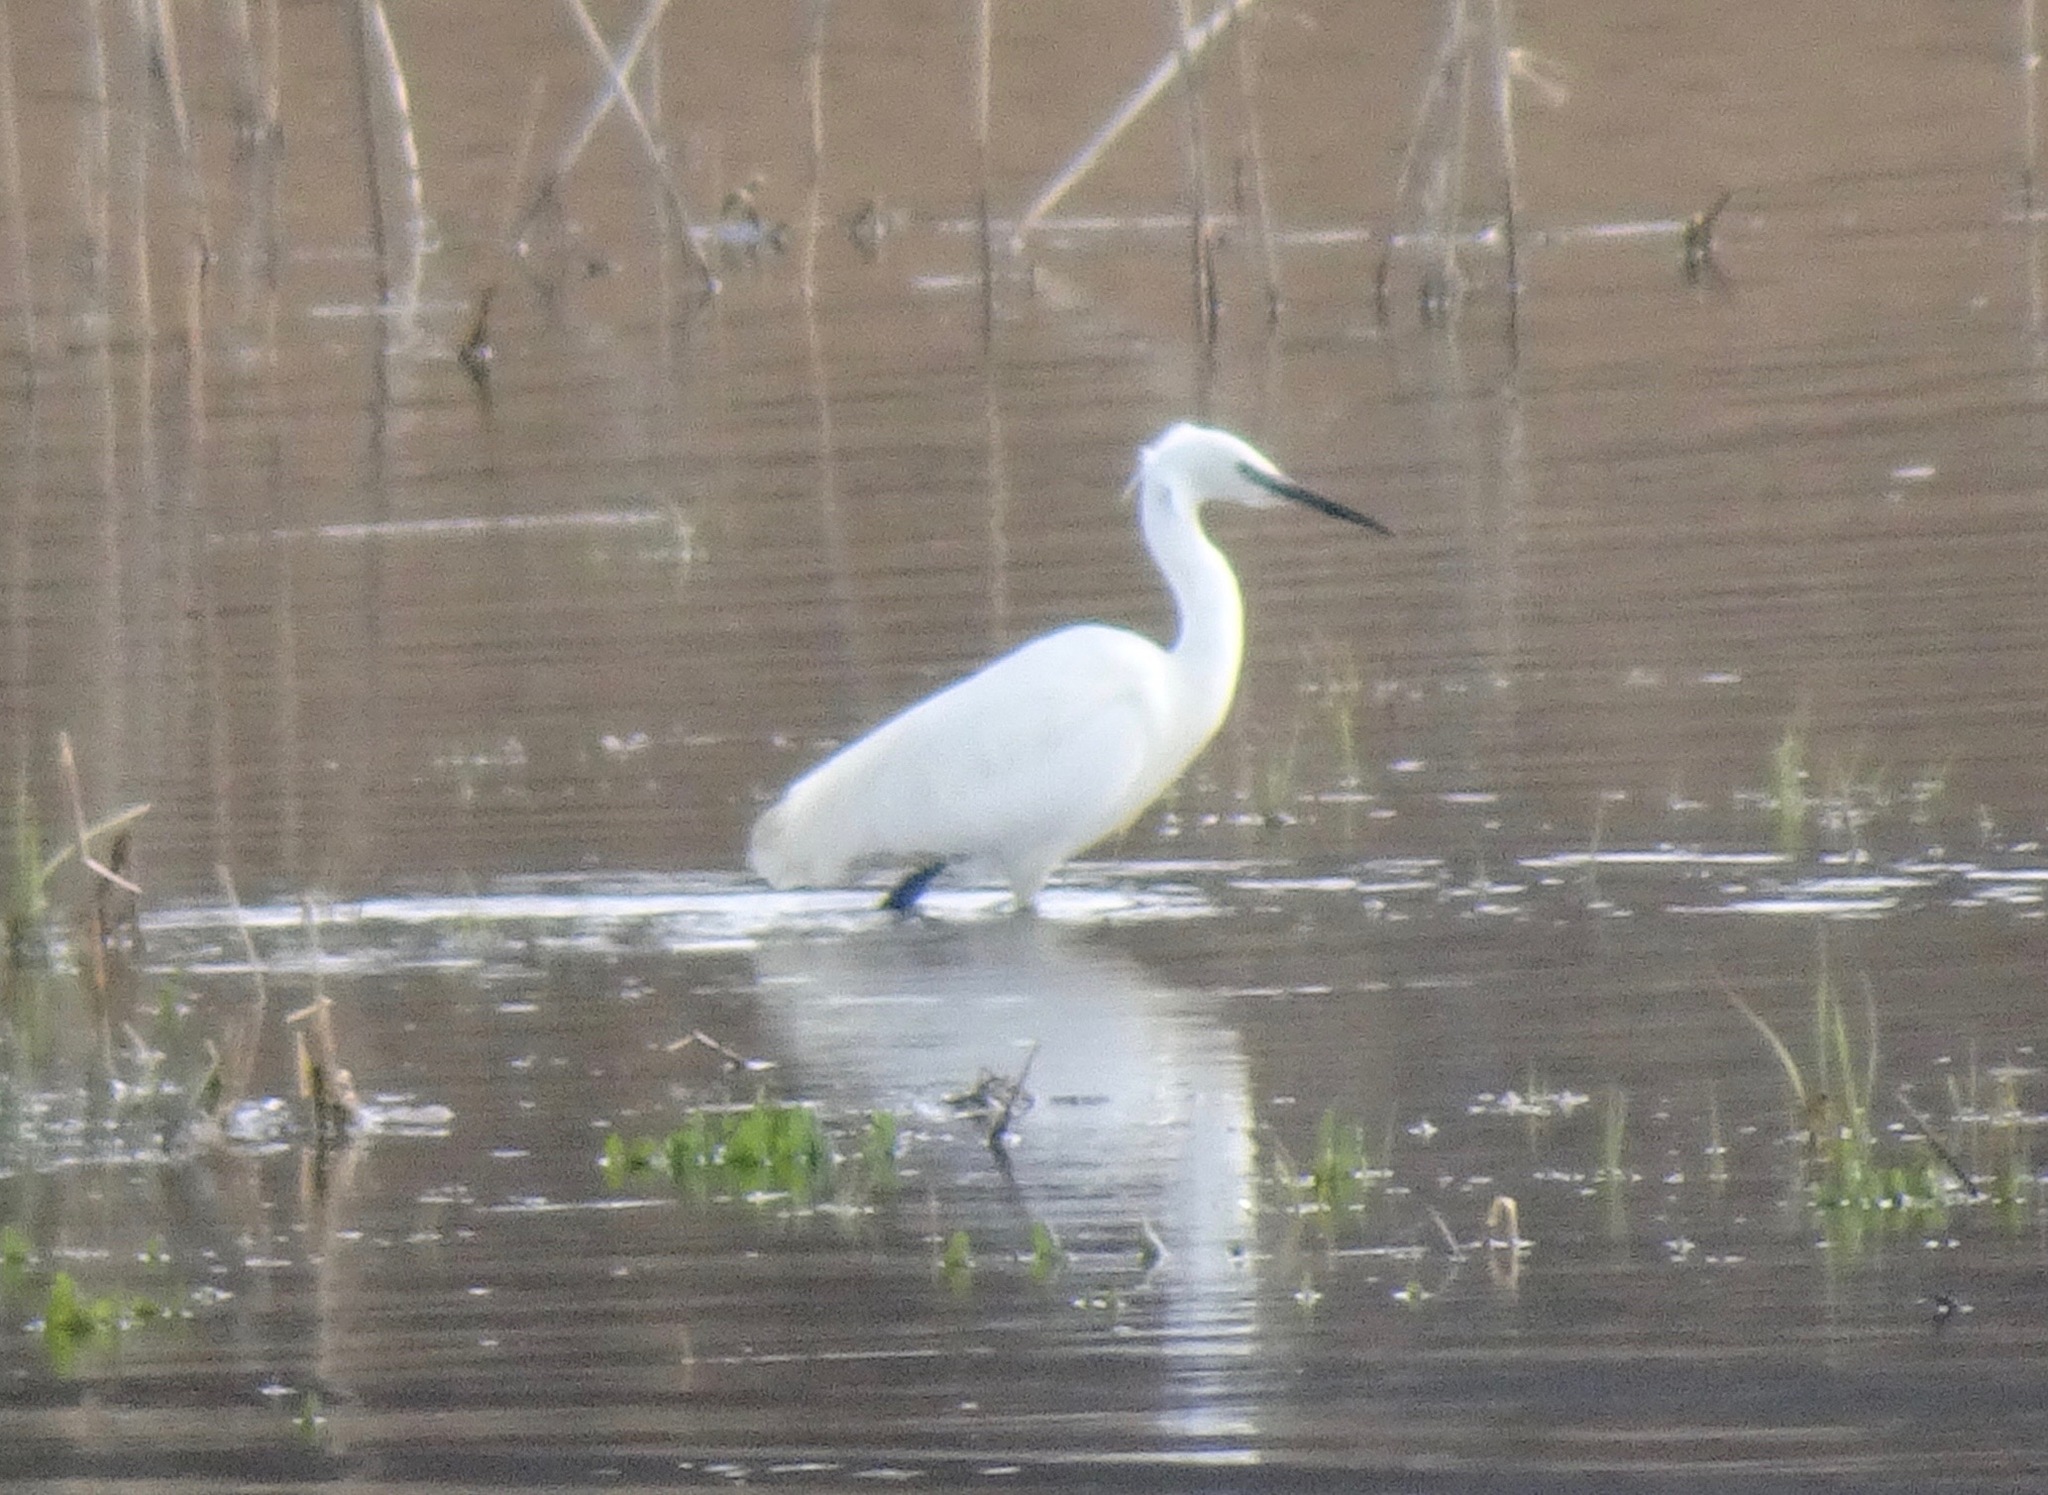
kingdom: Animalia
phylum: Chordata
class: Aves
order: Pelecaniformes
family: Ardeidae
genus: Egretta
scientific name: Egretta garzetta
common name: Little egret
